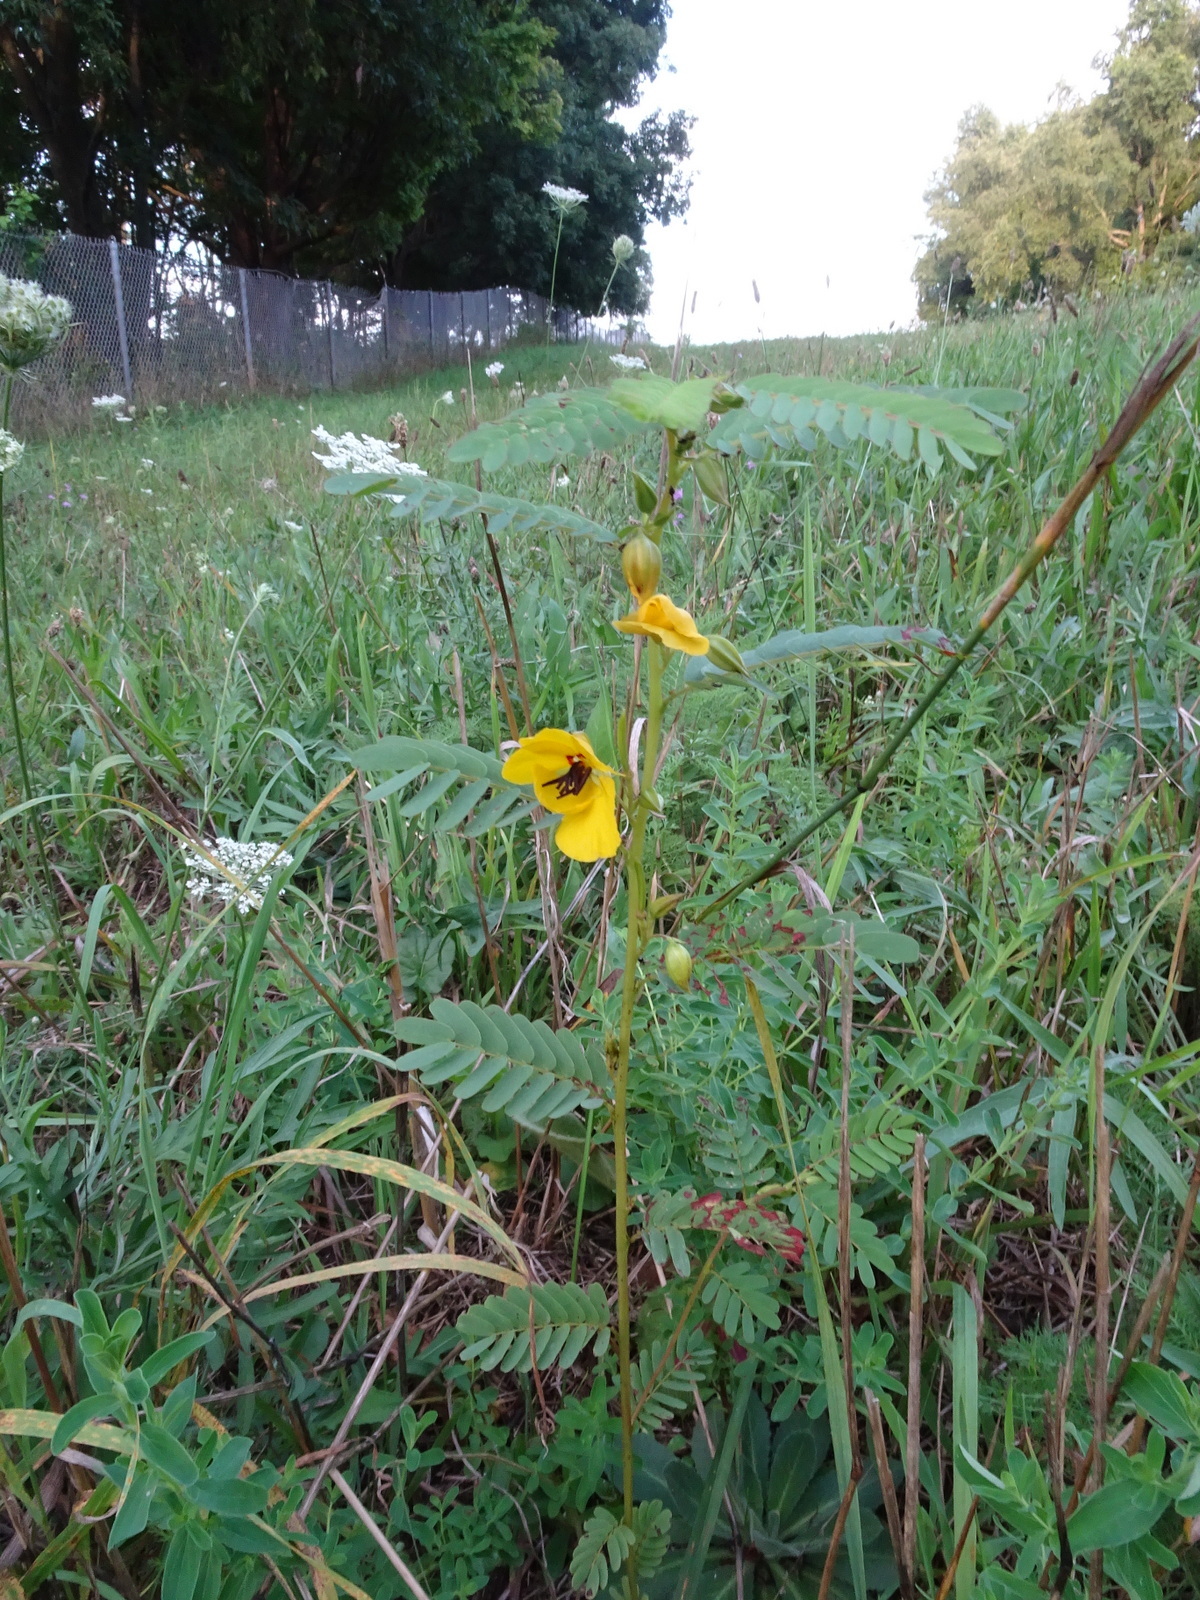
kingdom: Plantae
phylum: Tracheophyta
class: Magnoliopsida
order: Fabales
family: Fabaceae
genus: Chamaecrista
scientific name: Chamaecrista fasciculata
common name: Golden cassia
